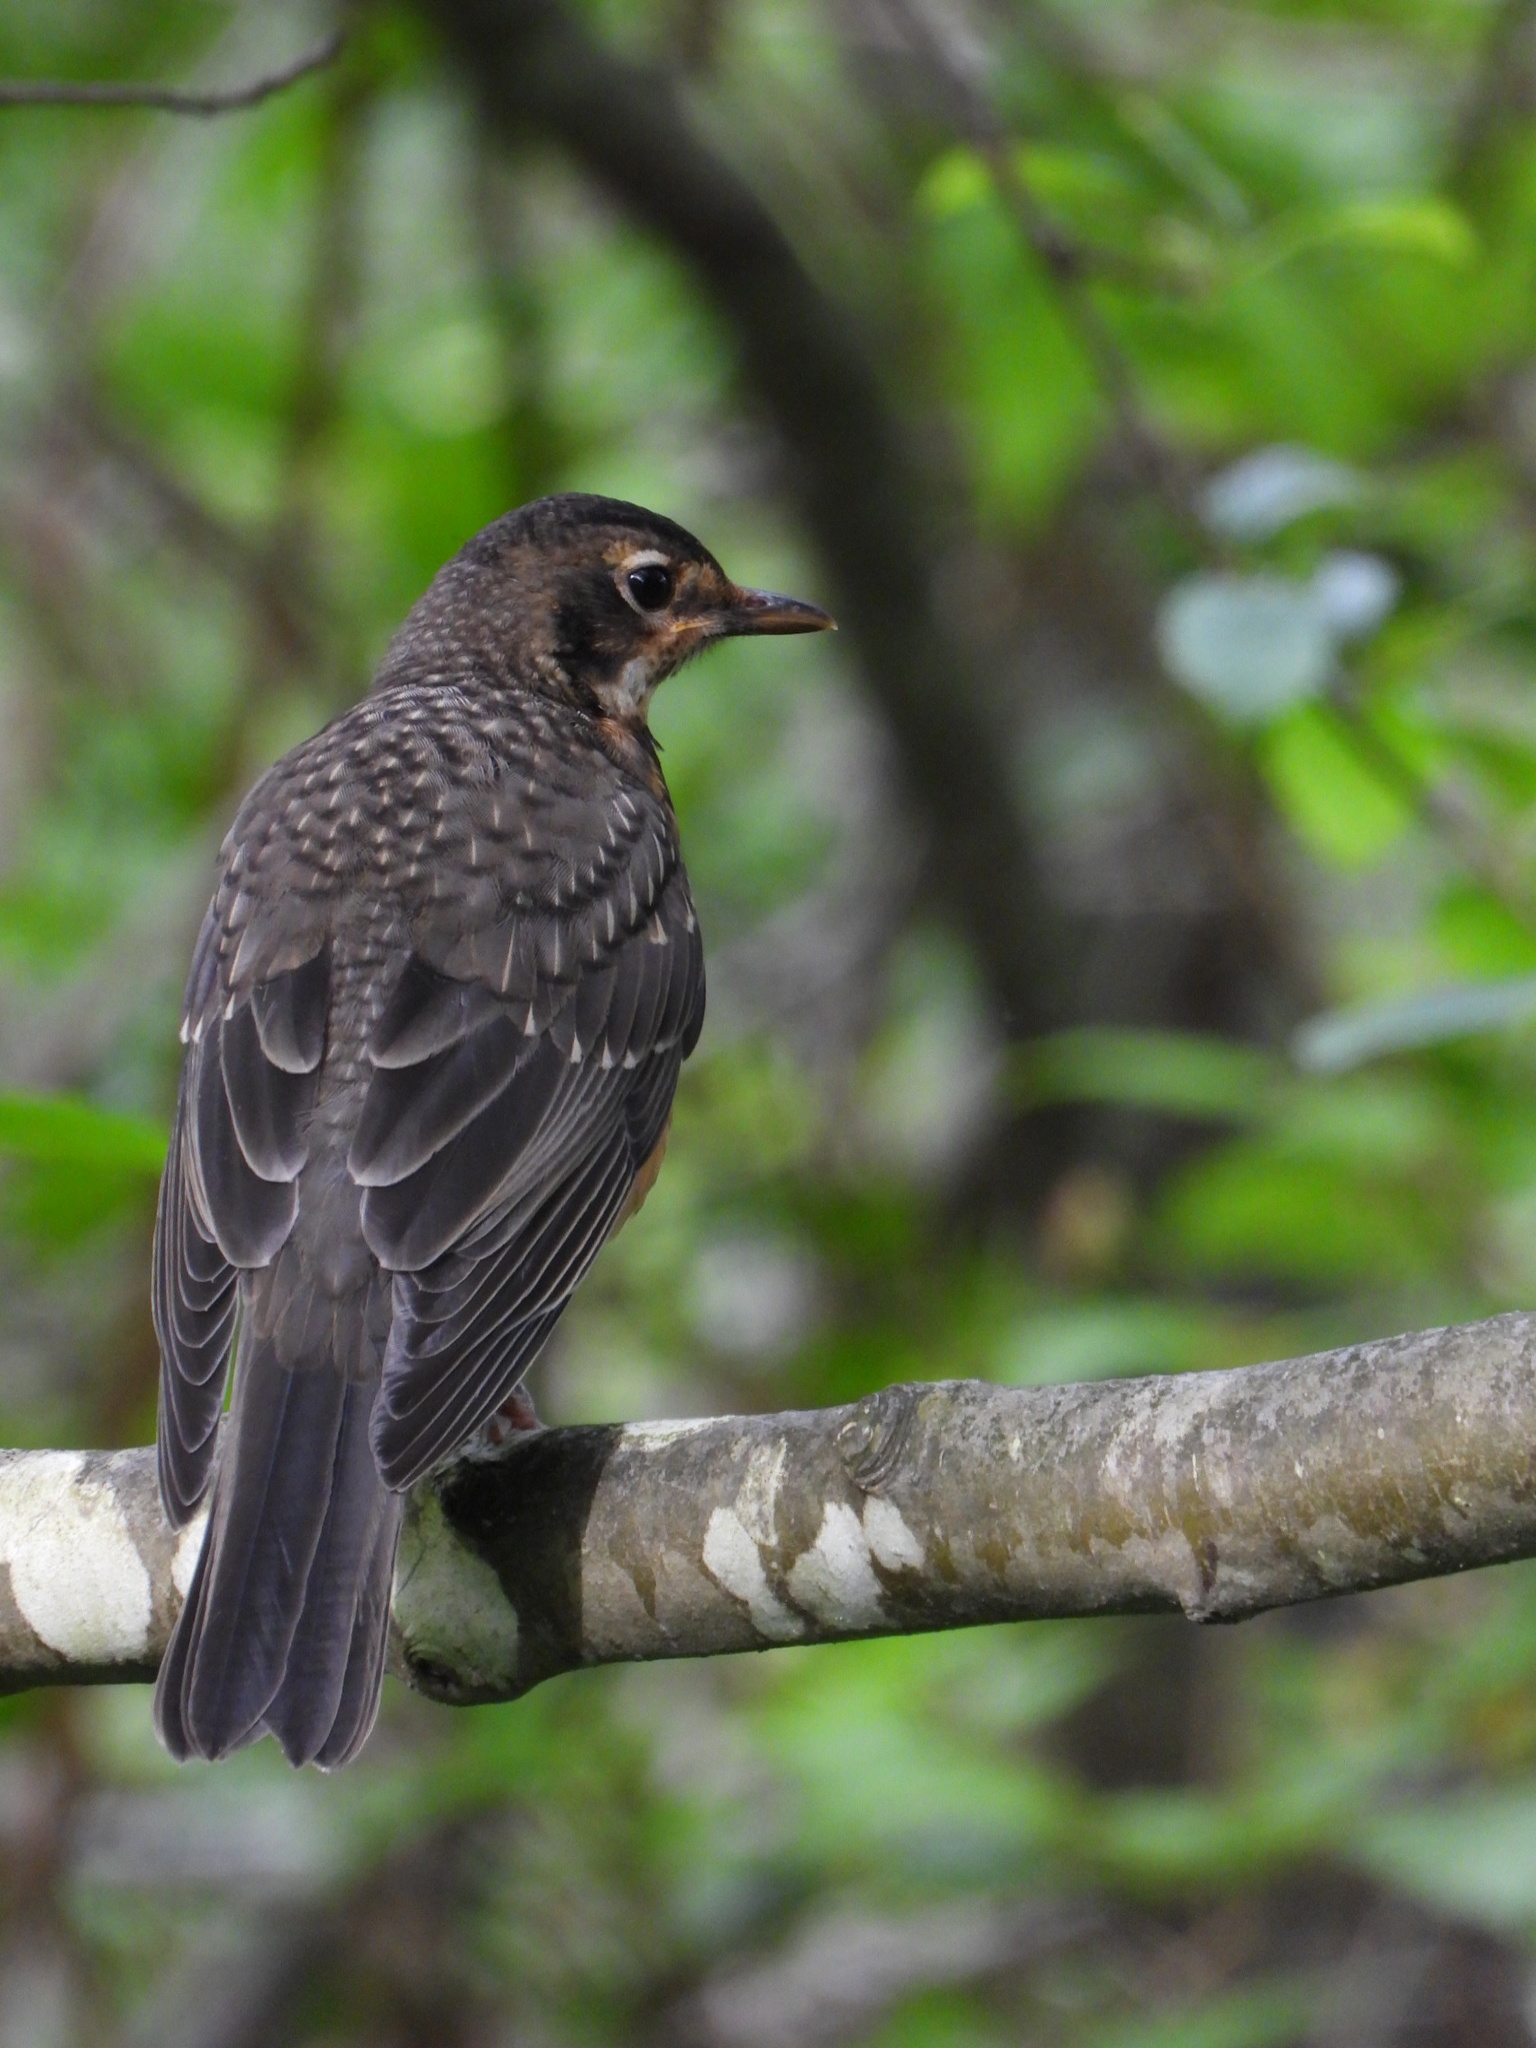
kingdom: Animalia
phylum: Chordata
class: Aves
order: Passeriformes
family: Turdidae
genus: Turdus
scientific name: Turdus migratorius
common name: American robin
